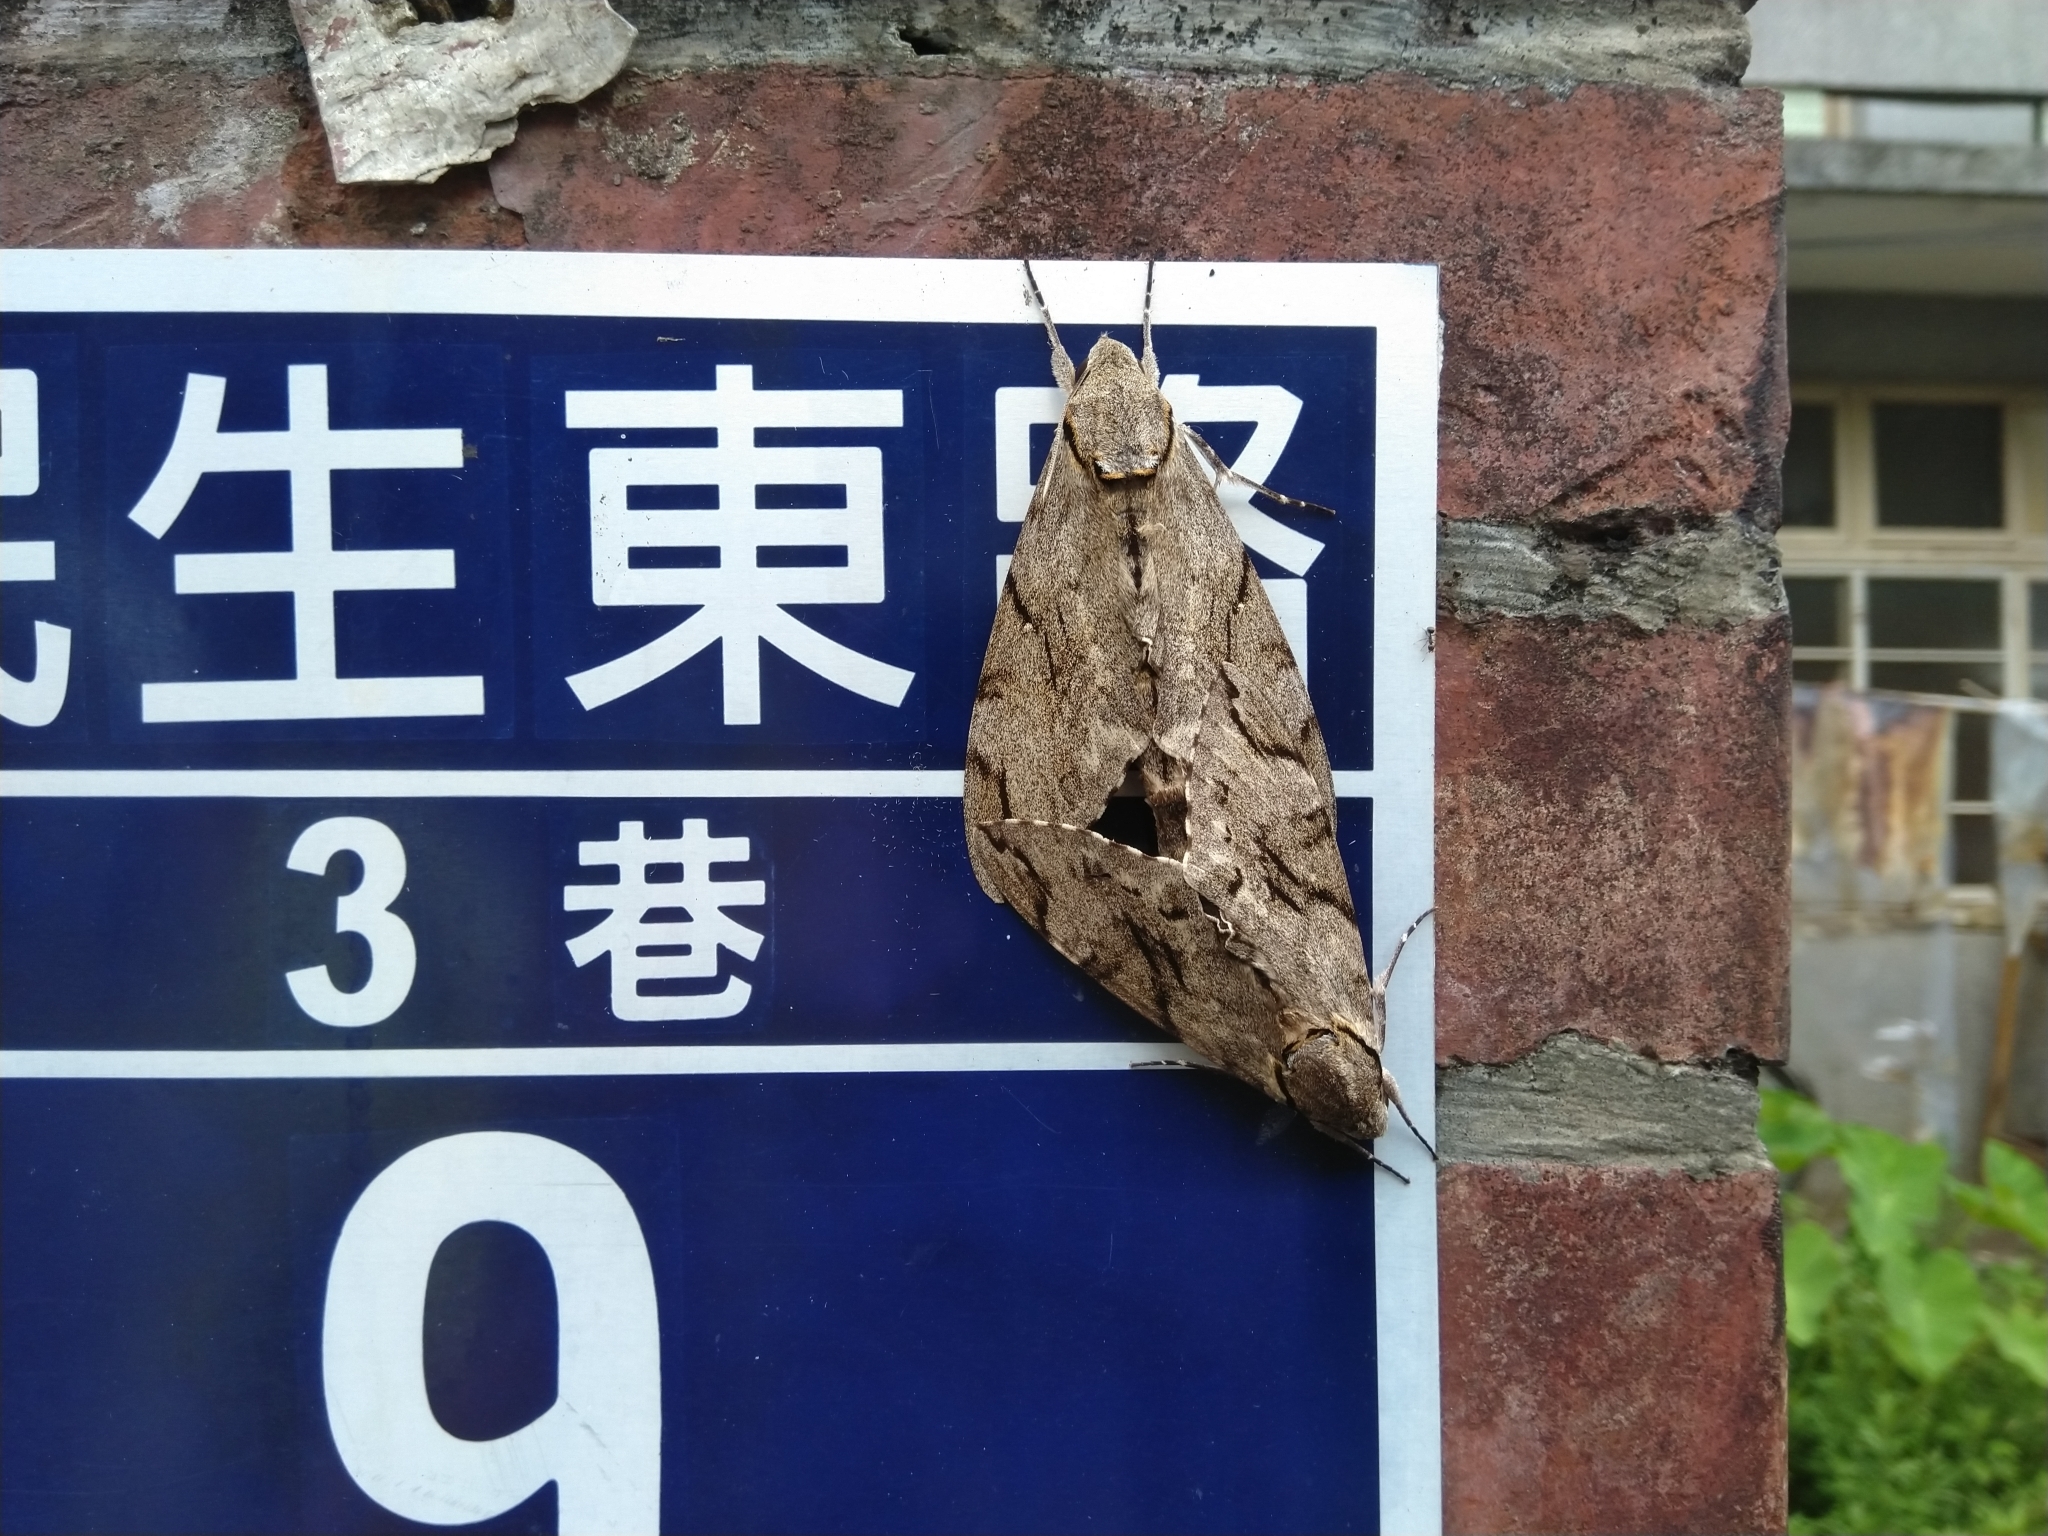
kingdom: Animalia
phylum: Arthropoda
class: Insecta
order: Lepidoptera
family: Sphingidae
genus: Psilogramma
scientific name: Psilogramma increta
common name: Gray hawk moth
